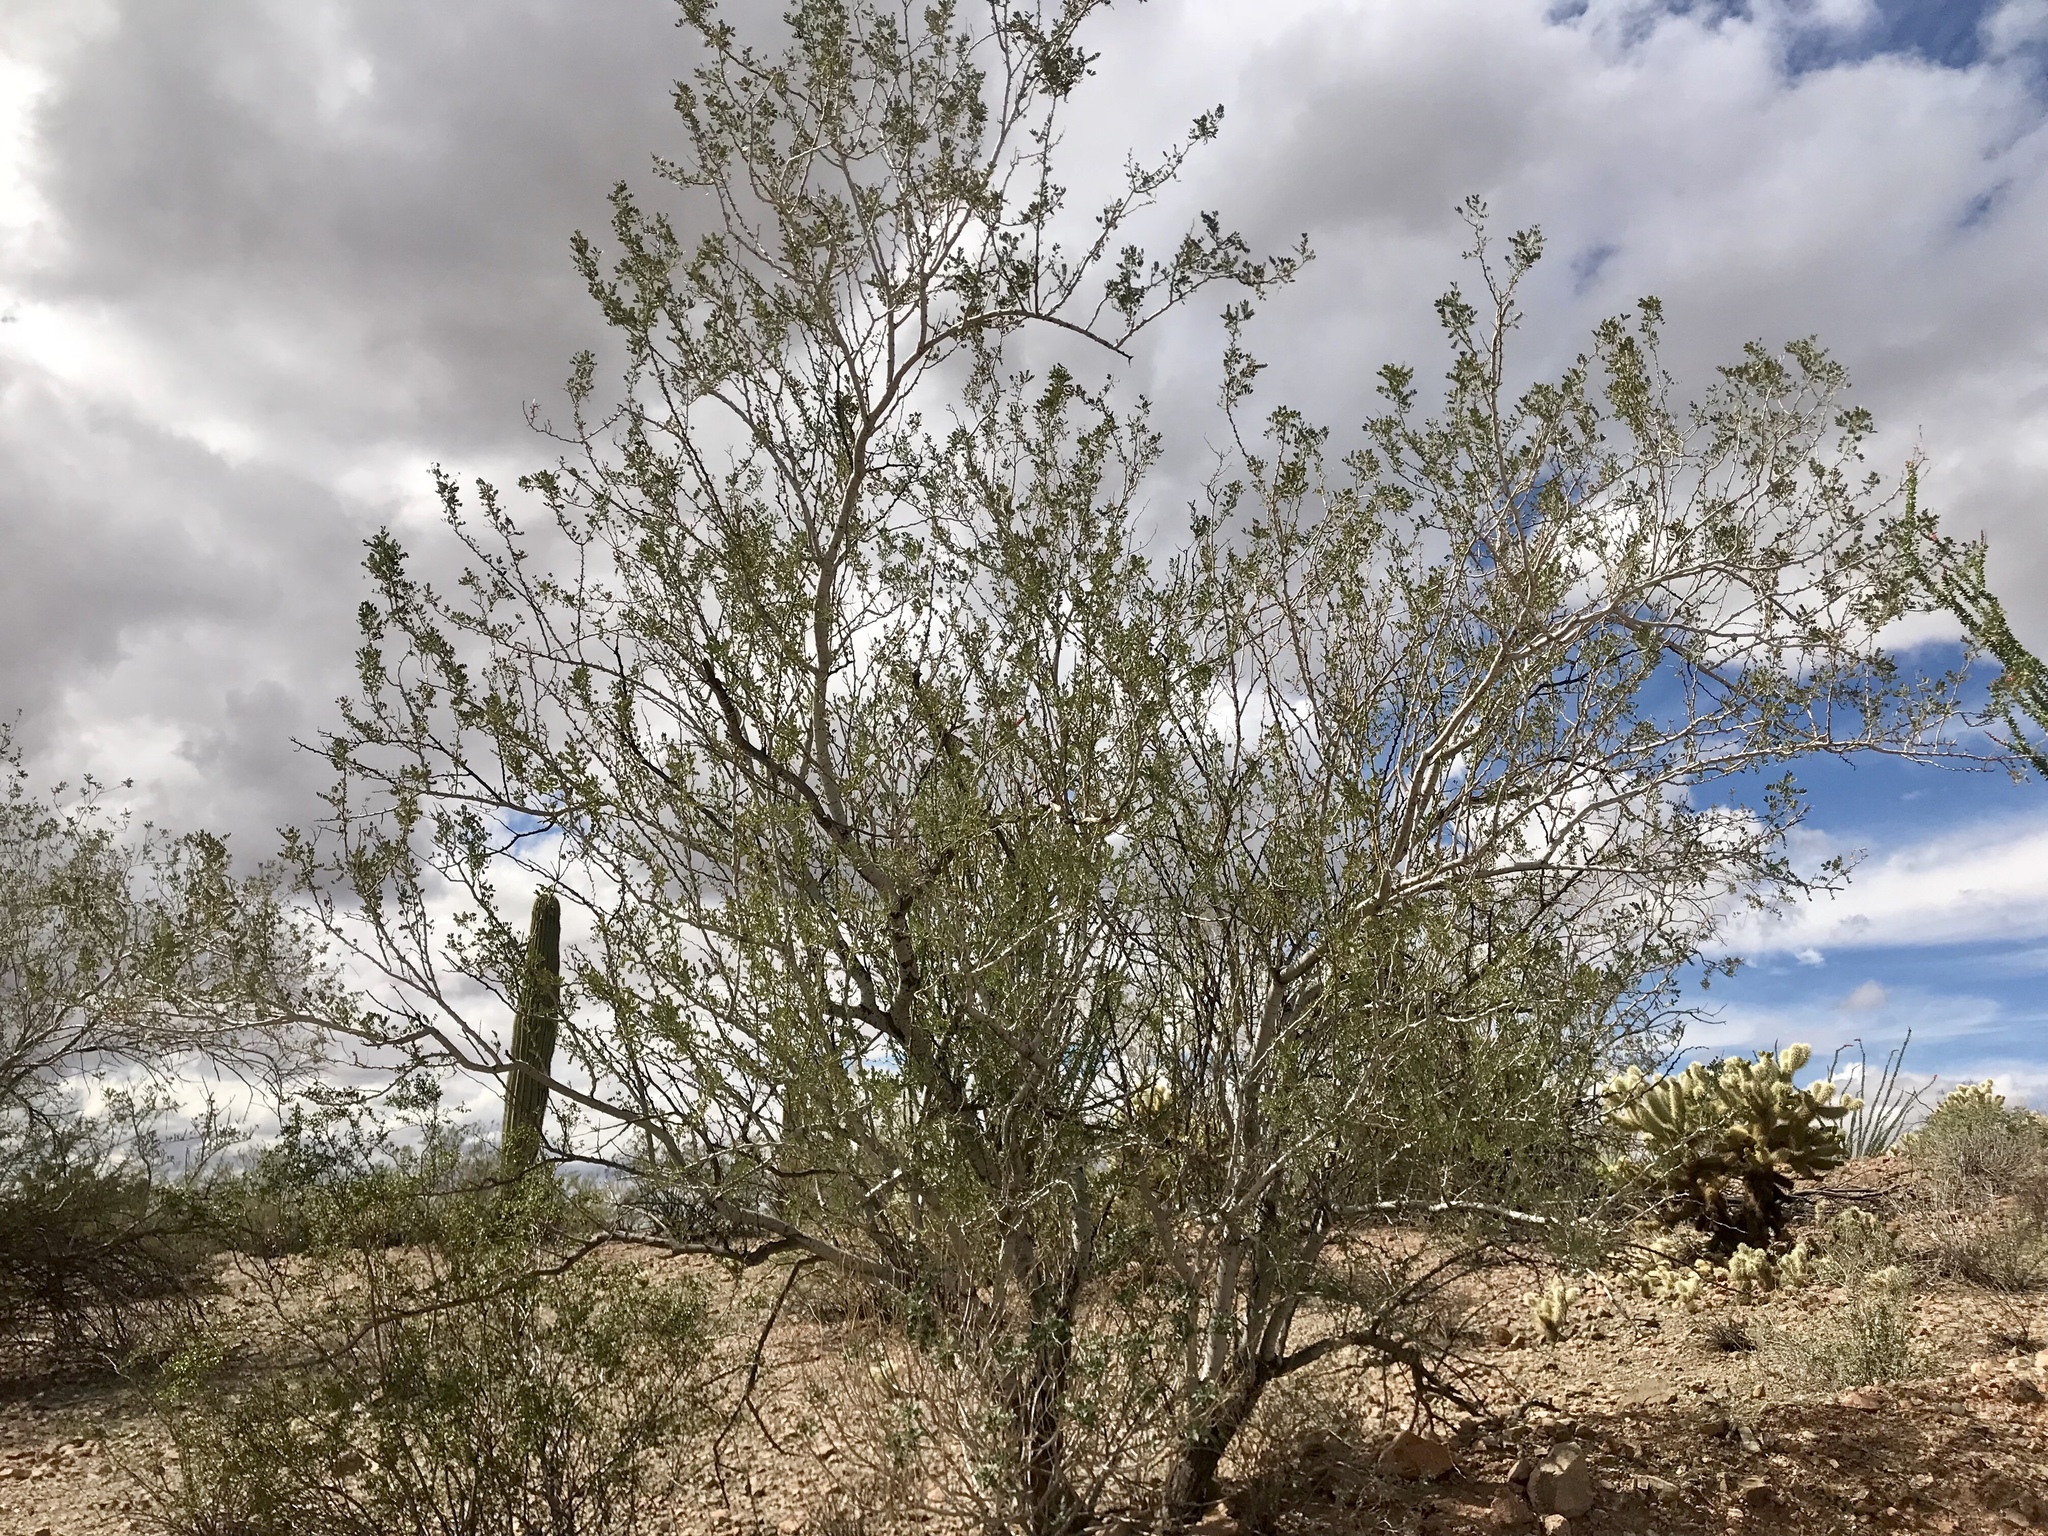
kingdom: Plantae
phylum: Tracheophyta
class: Magnoliopsida
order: Fabales
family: Fabaceae
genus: Olneya
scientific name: Olneya tesota
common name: Desert ironwood
